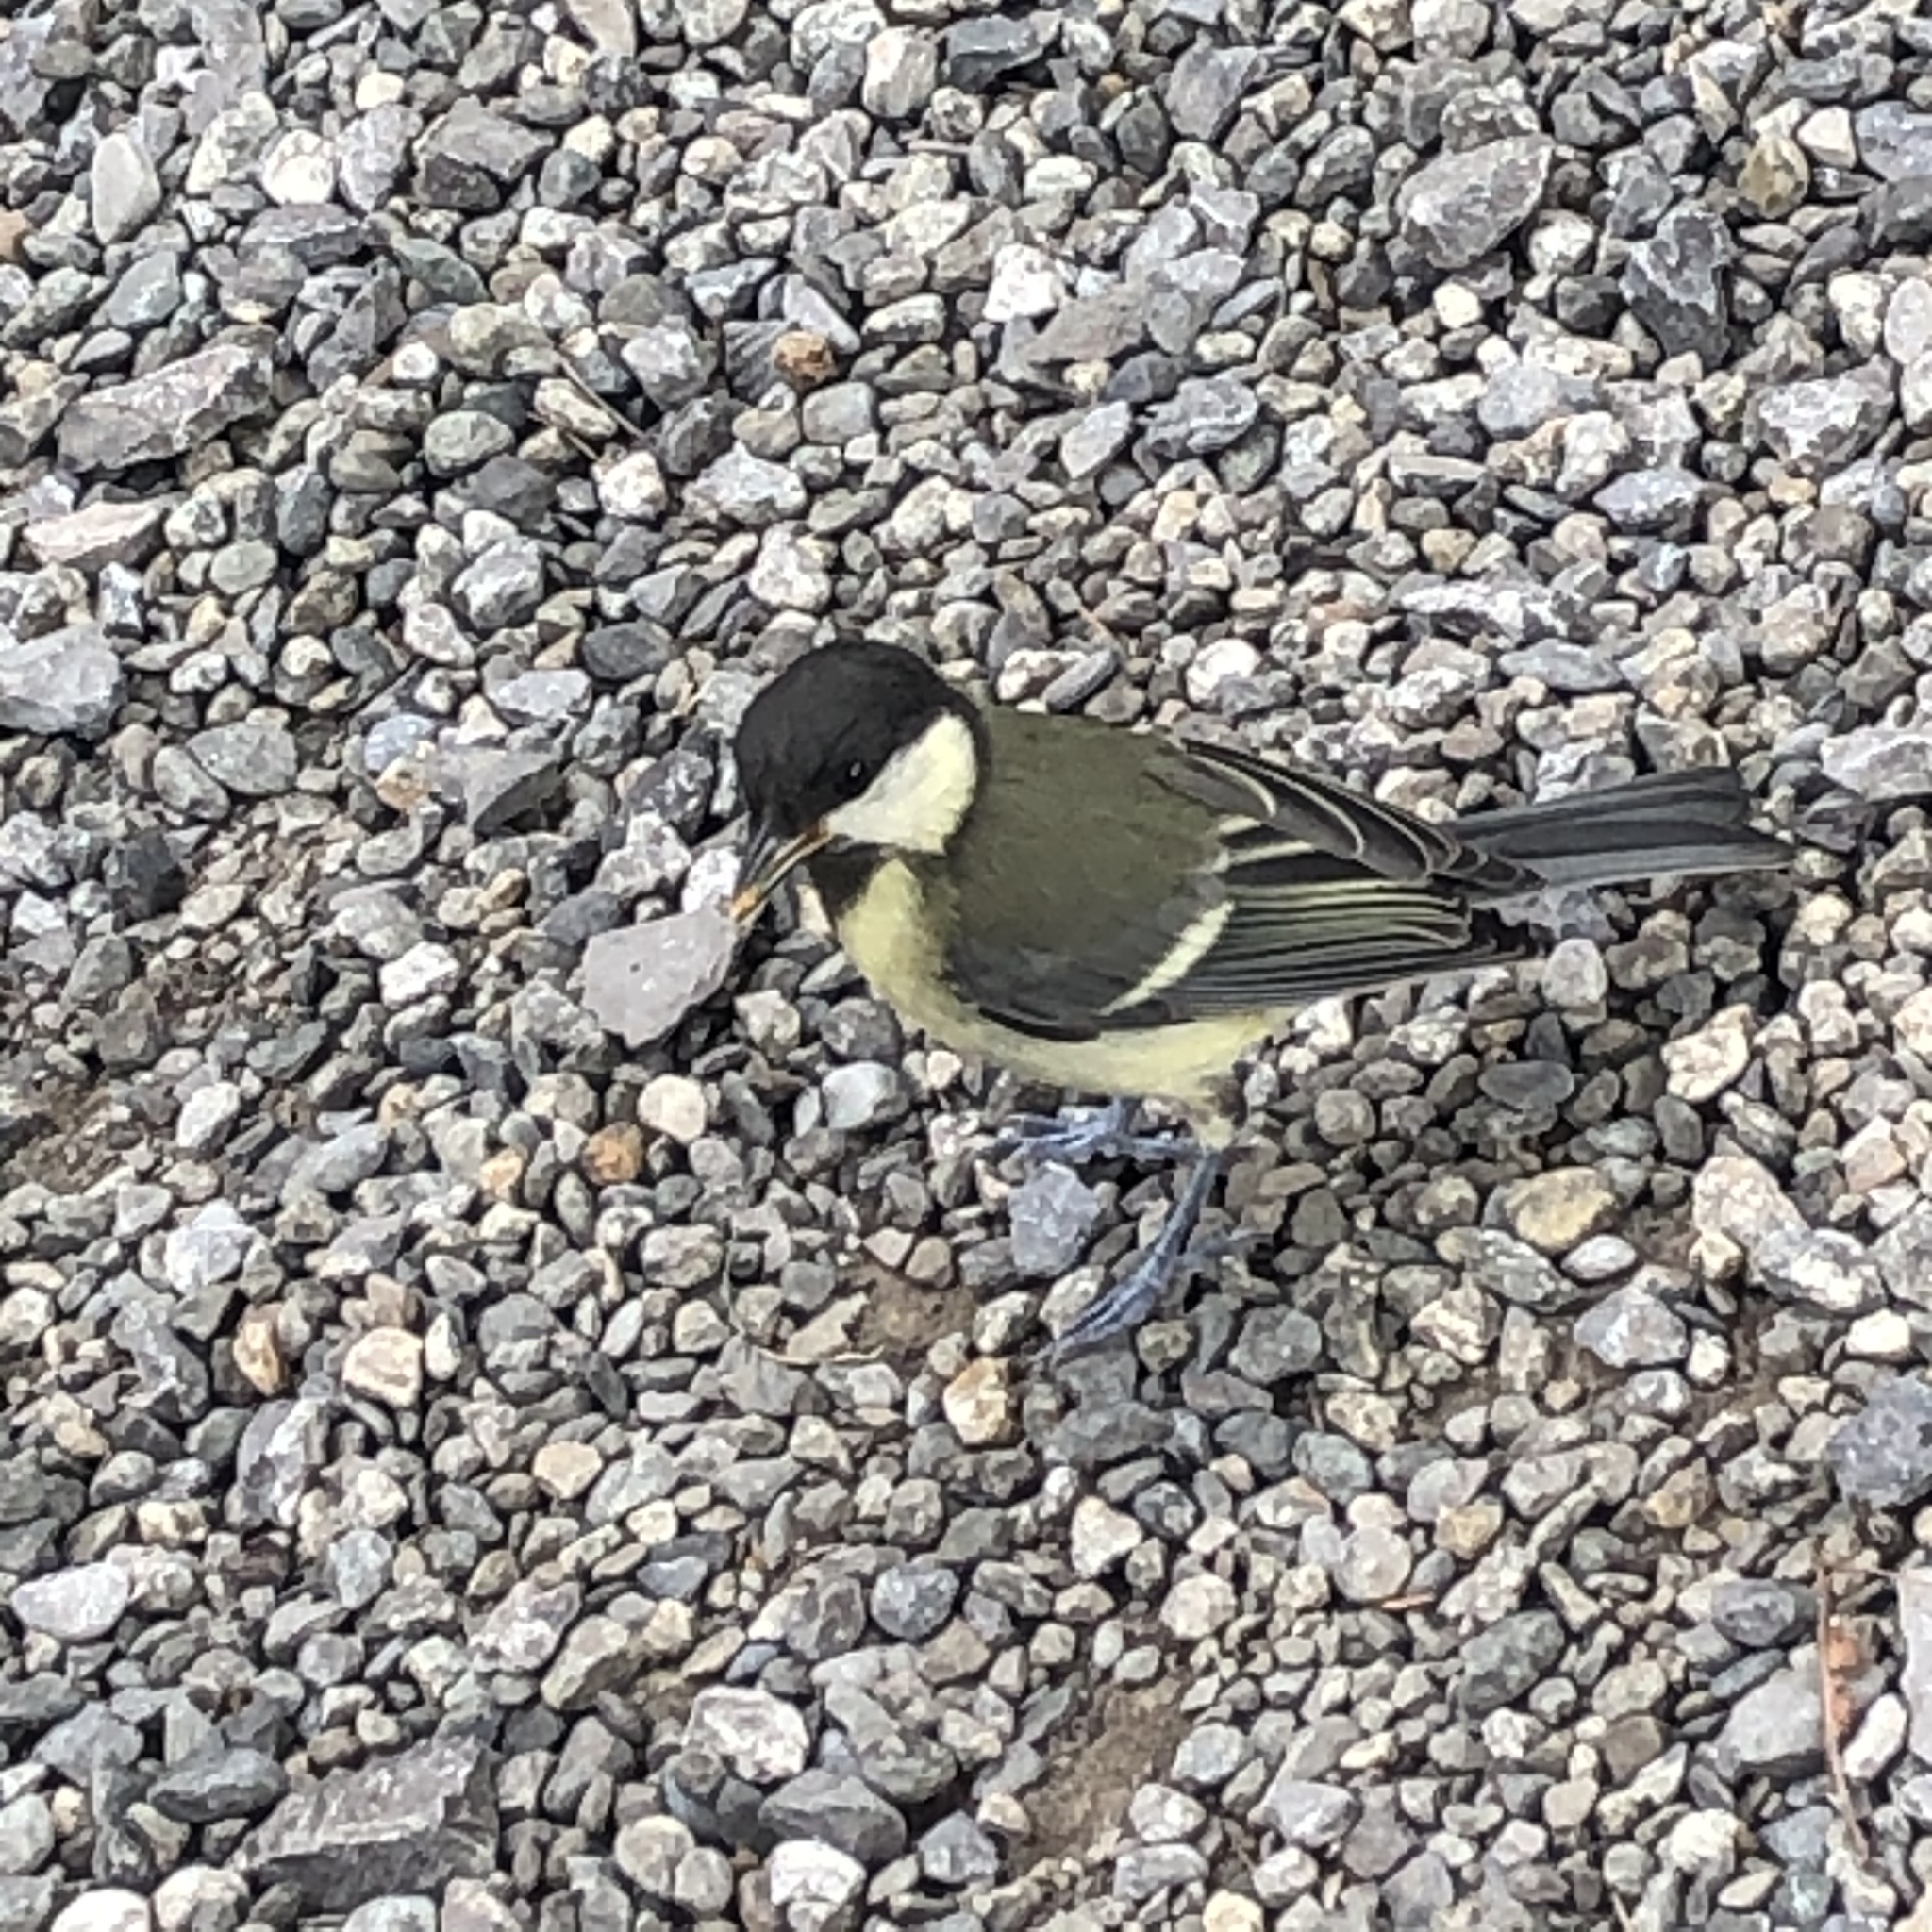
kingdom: Animalia
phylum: Chordata
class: Aves
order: Passeriformes
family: Paridae
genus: Parus
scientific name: Parus major
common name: Great tit
